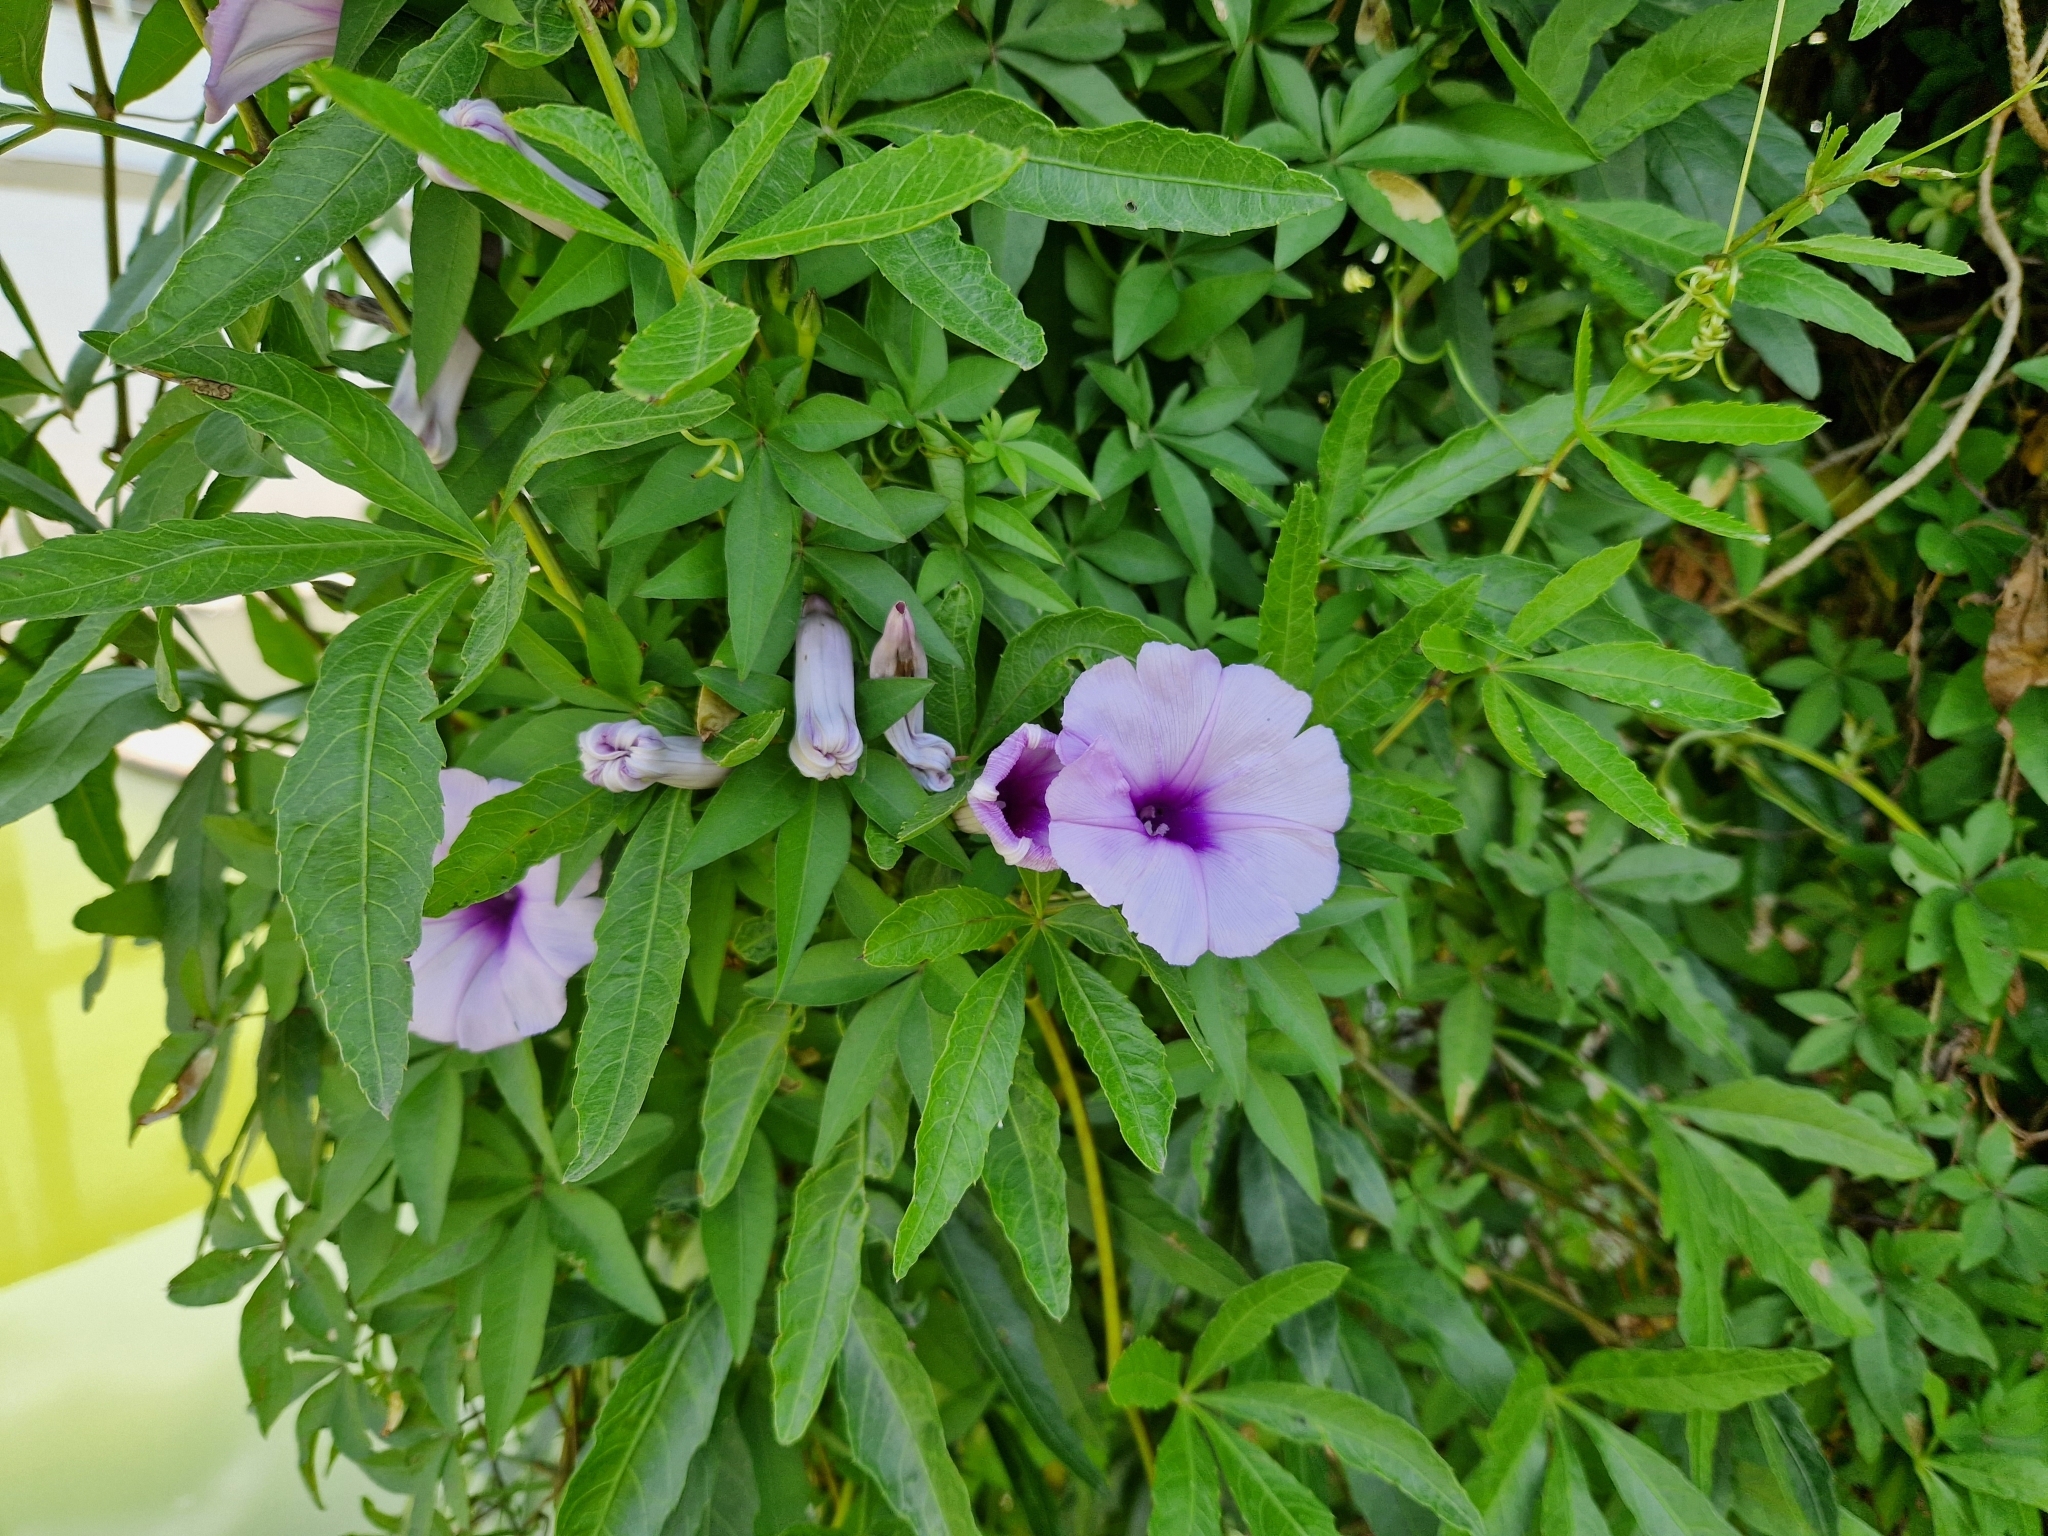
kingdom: Plantae
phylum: Tracheophyta
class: Magnoliopsida
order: Solanales
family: Convolvulaceae
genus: Ipomoea
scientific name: Ipomoea cairica
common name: Mile a minute vine
